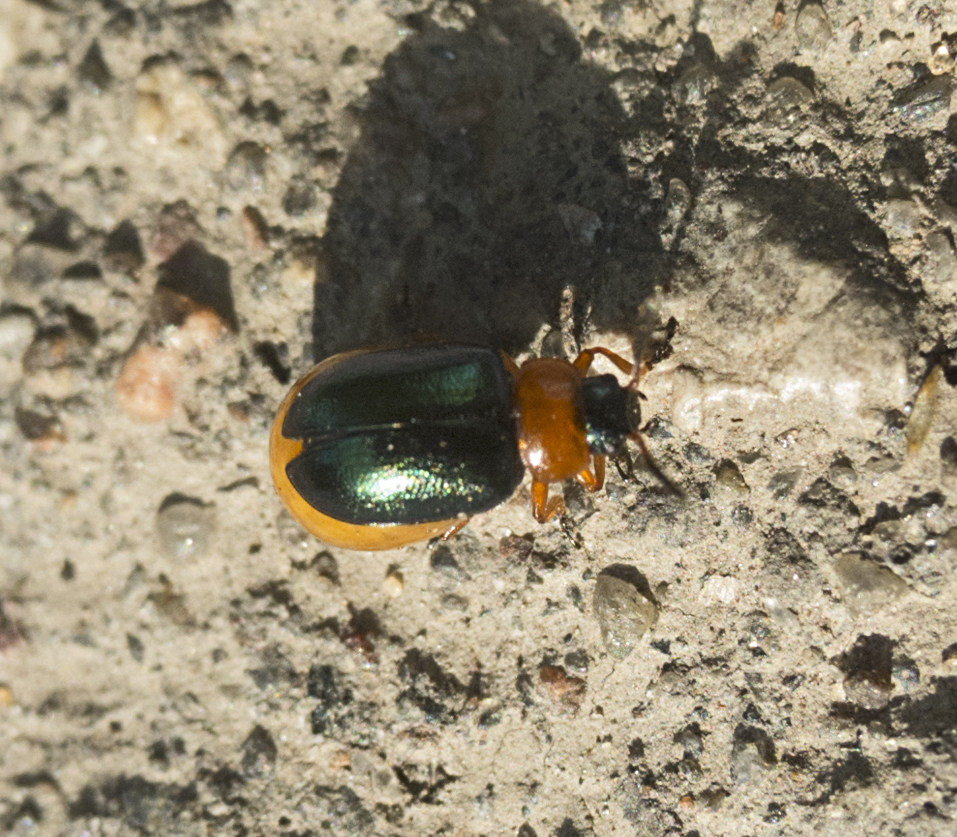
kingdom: Animalia
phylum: Arthropoda
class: Insecta
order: Coleoptera
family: Chrysomelidae
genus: Gastrophysa
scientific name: Gastrophysa polygoni
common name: Knotweed leaf beetle
